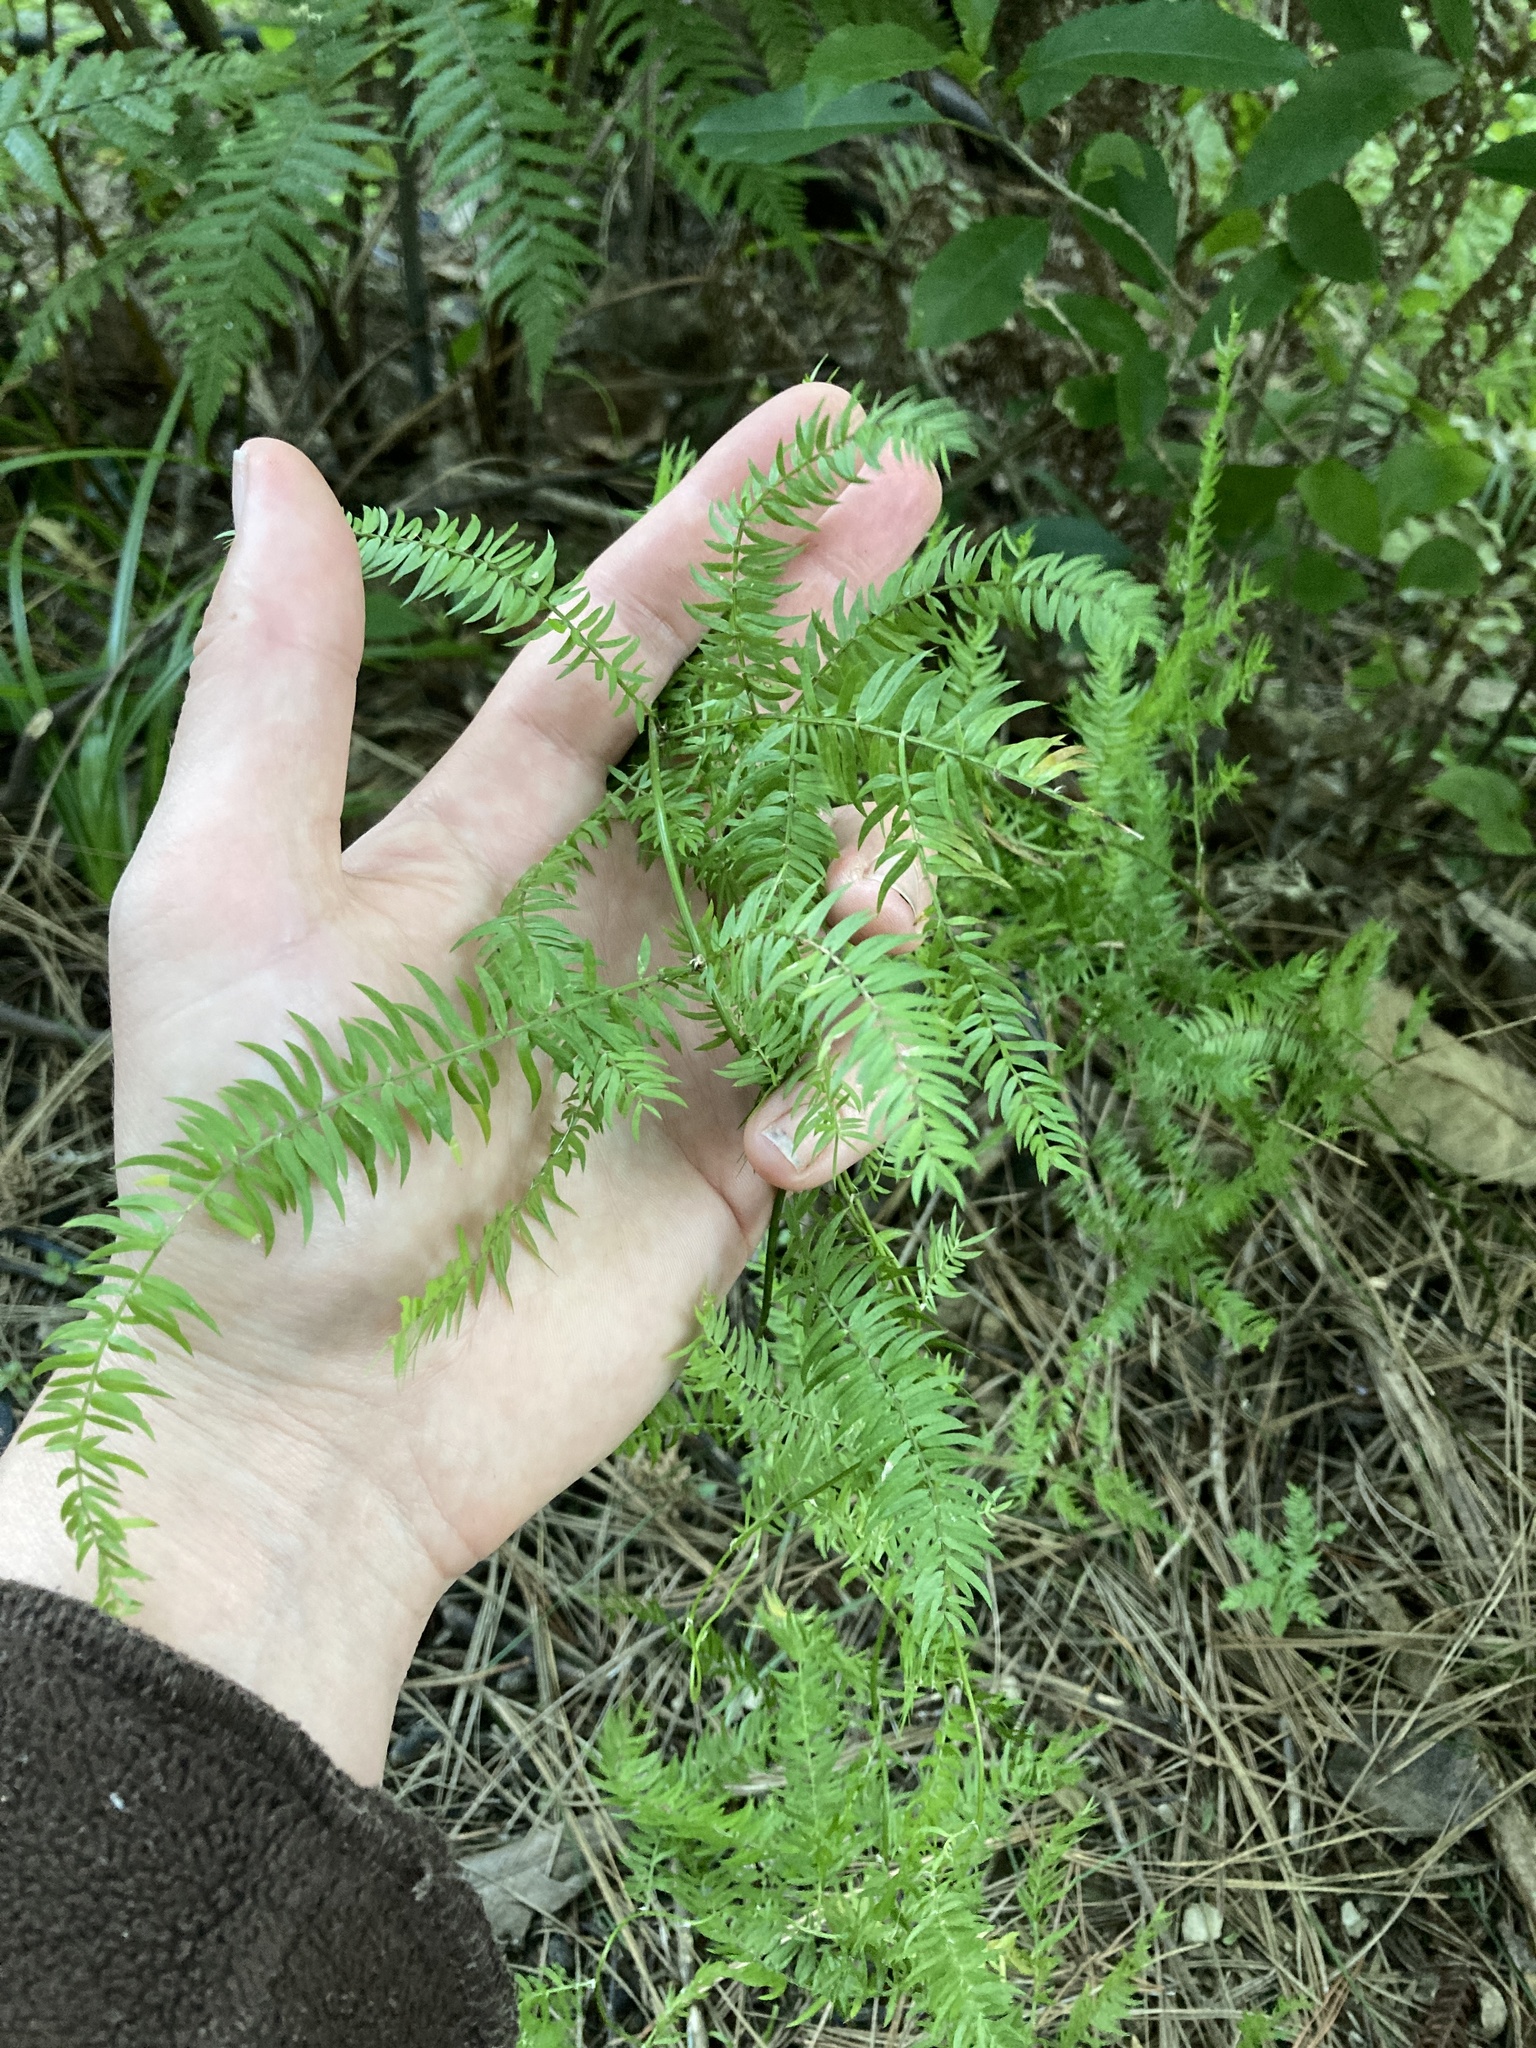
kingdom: Plantae
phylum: Tracheophyta
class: Liliopsida
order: Asparagales
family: Asparagaceae
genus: Asparagus
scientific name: Asparagus scandens
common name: Asparagus-fern
